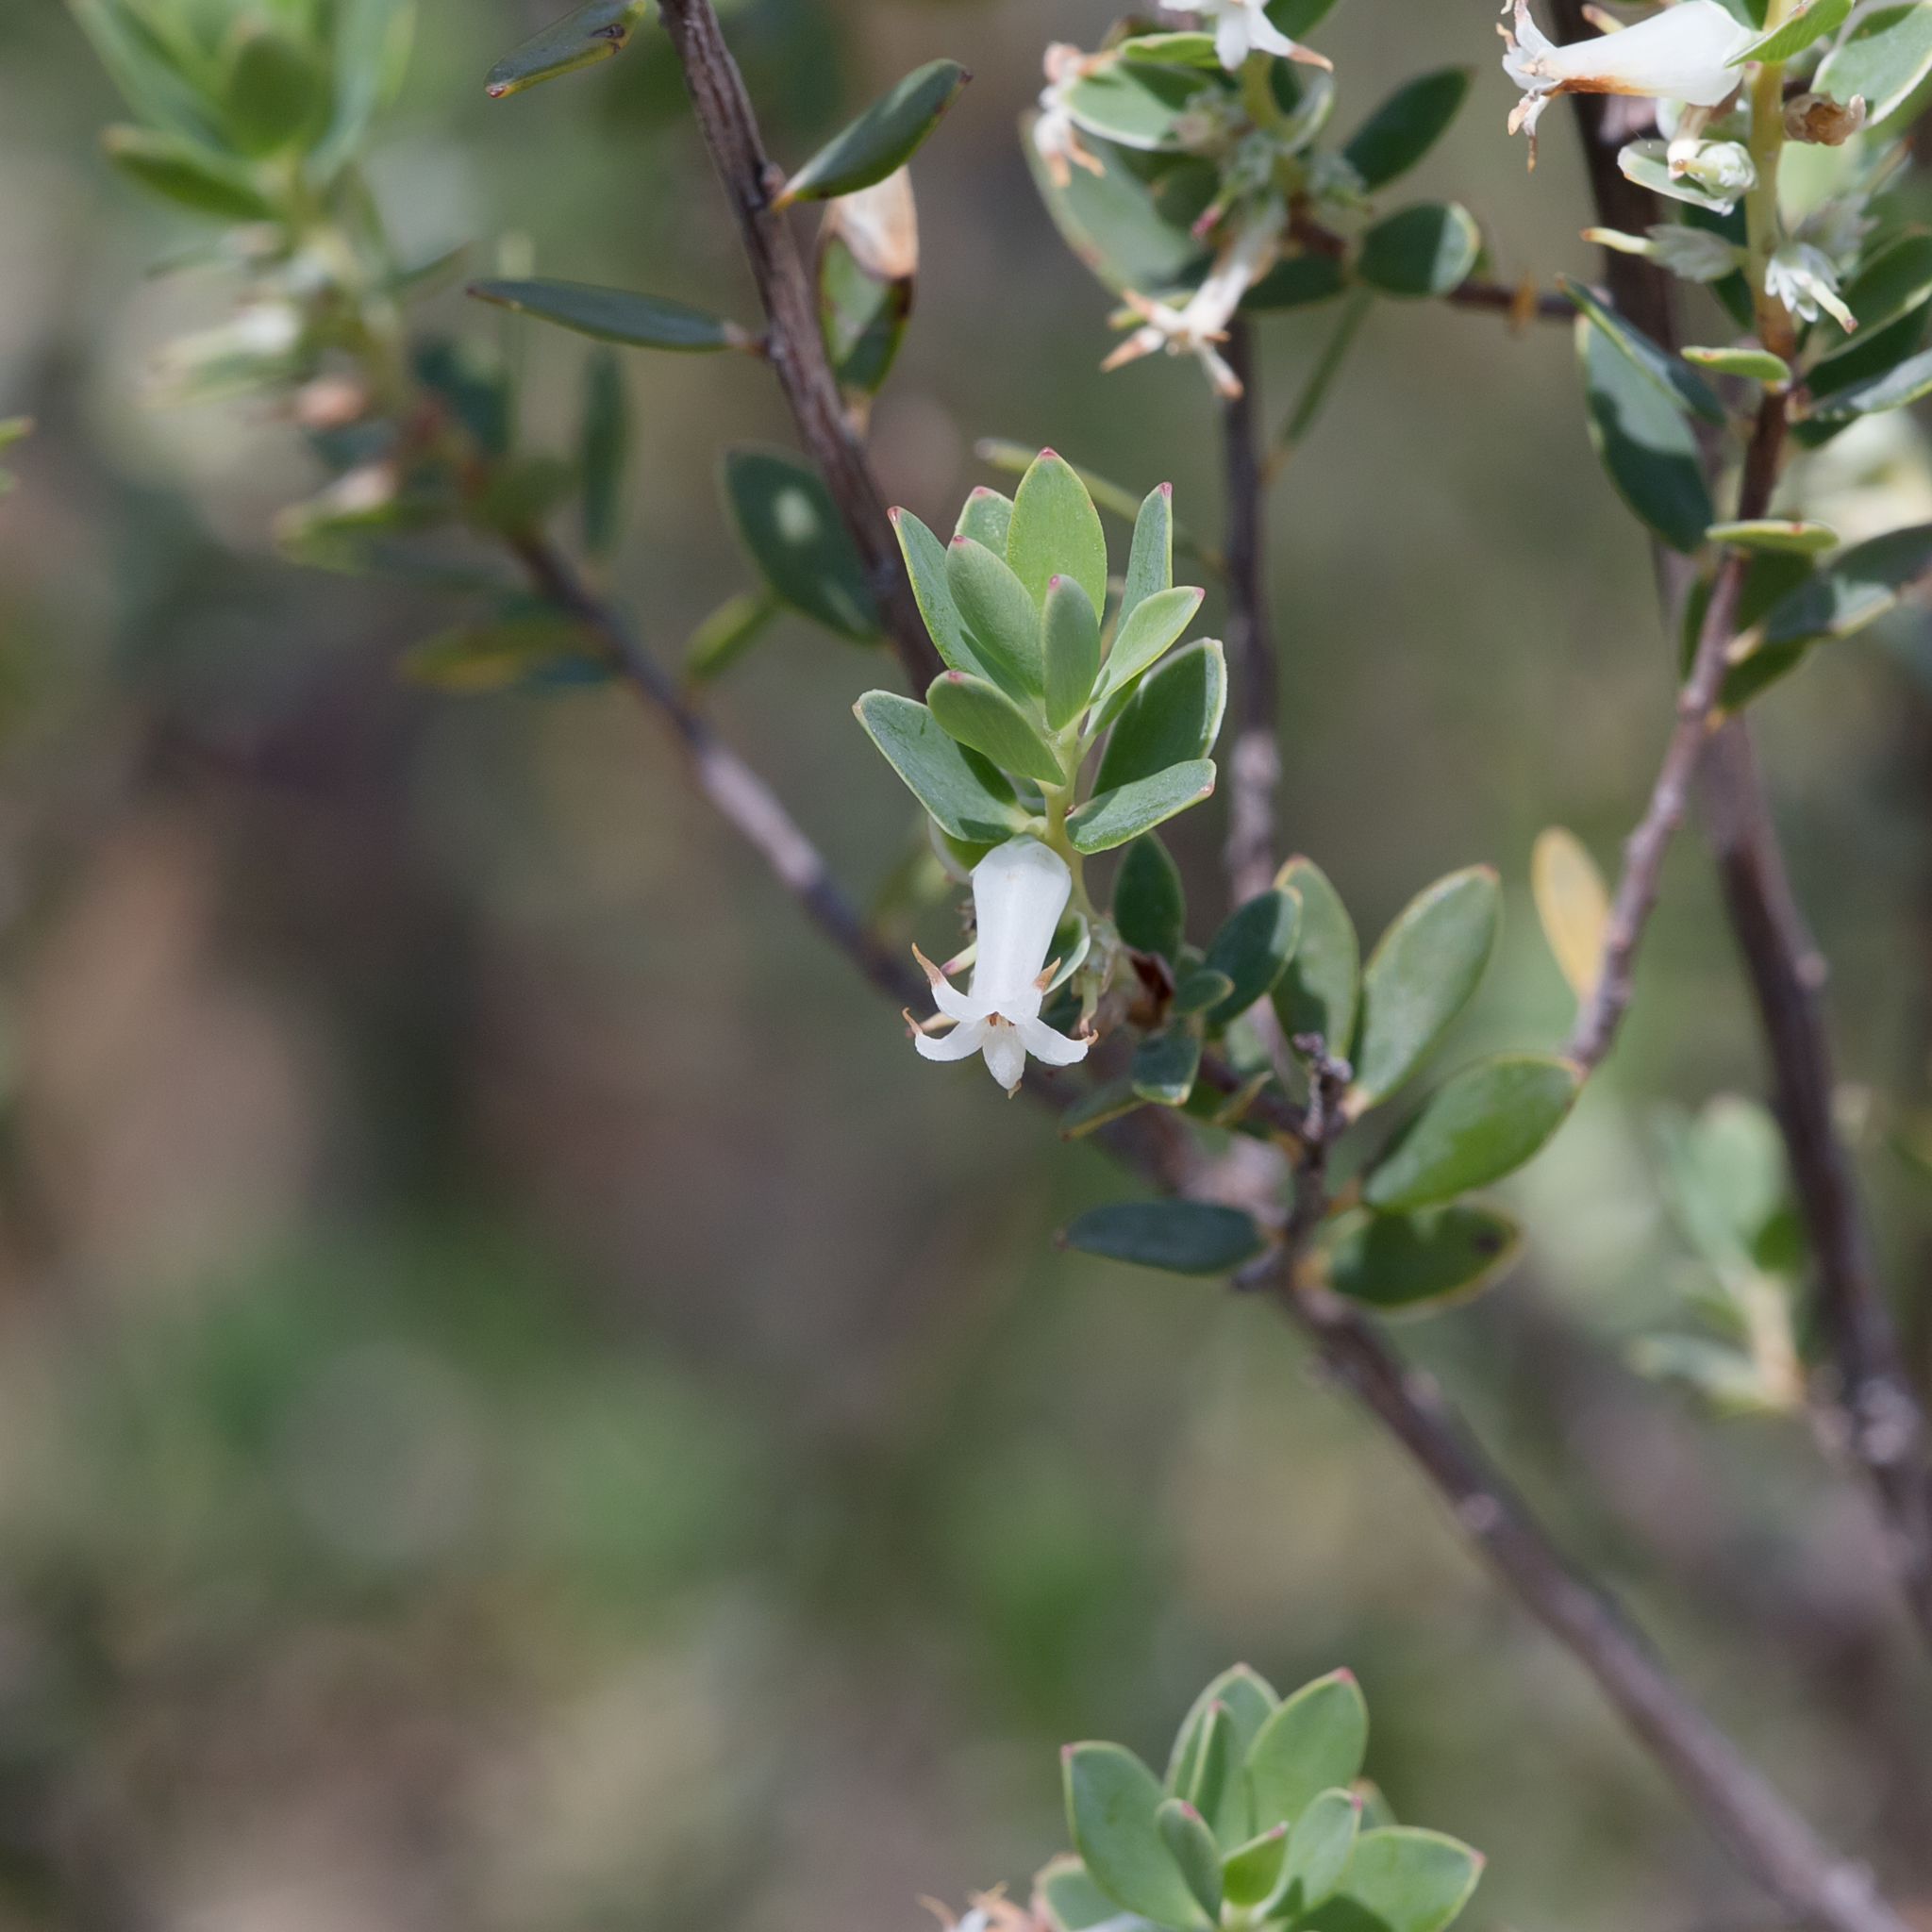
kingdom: Plantae
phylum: Tracheophyta
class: Magnoliopsida
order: Ericales
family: Ericaceae
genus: Brachyloma
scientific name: Brachyloma daphnoides
